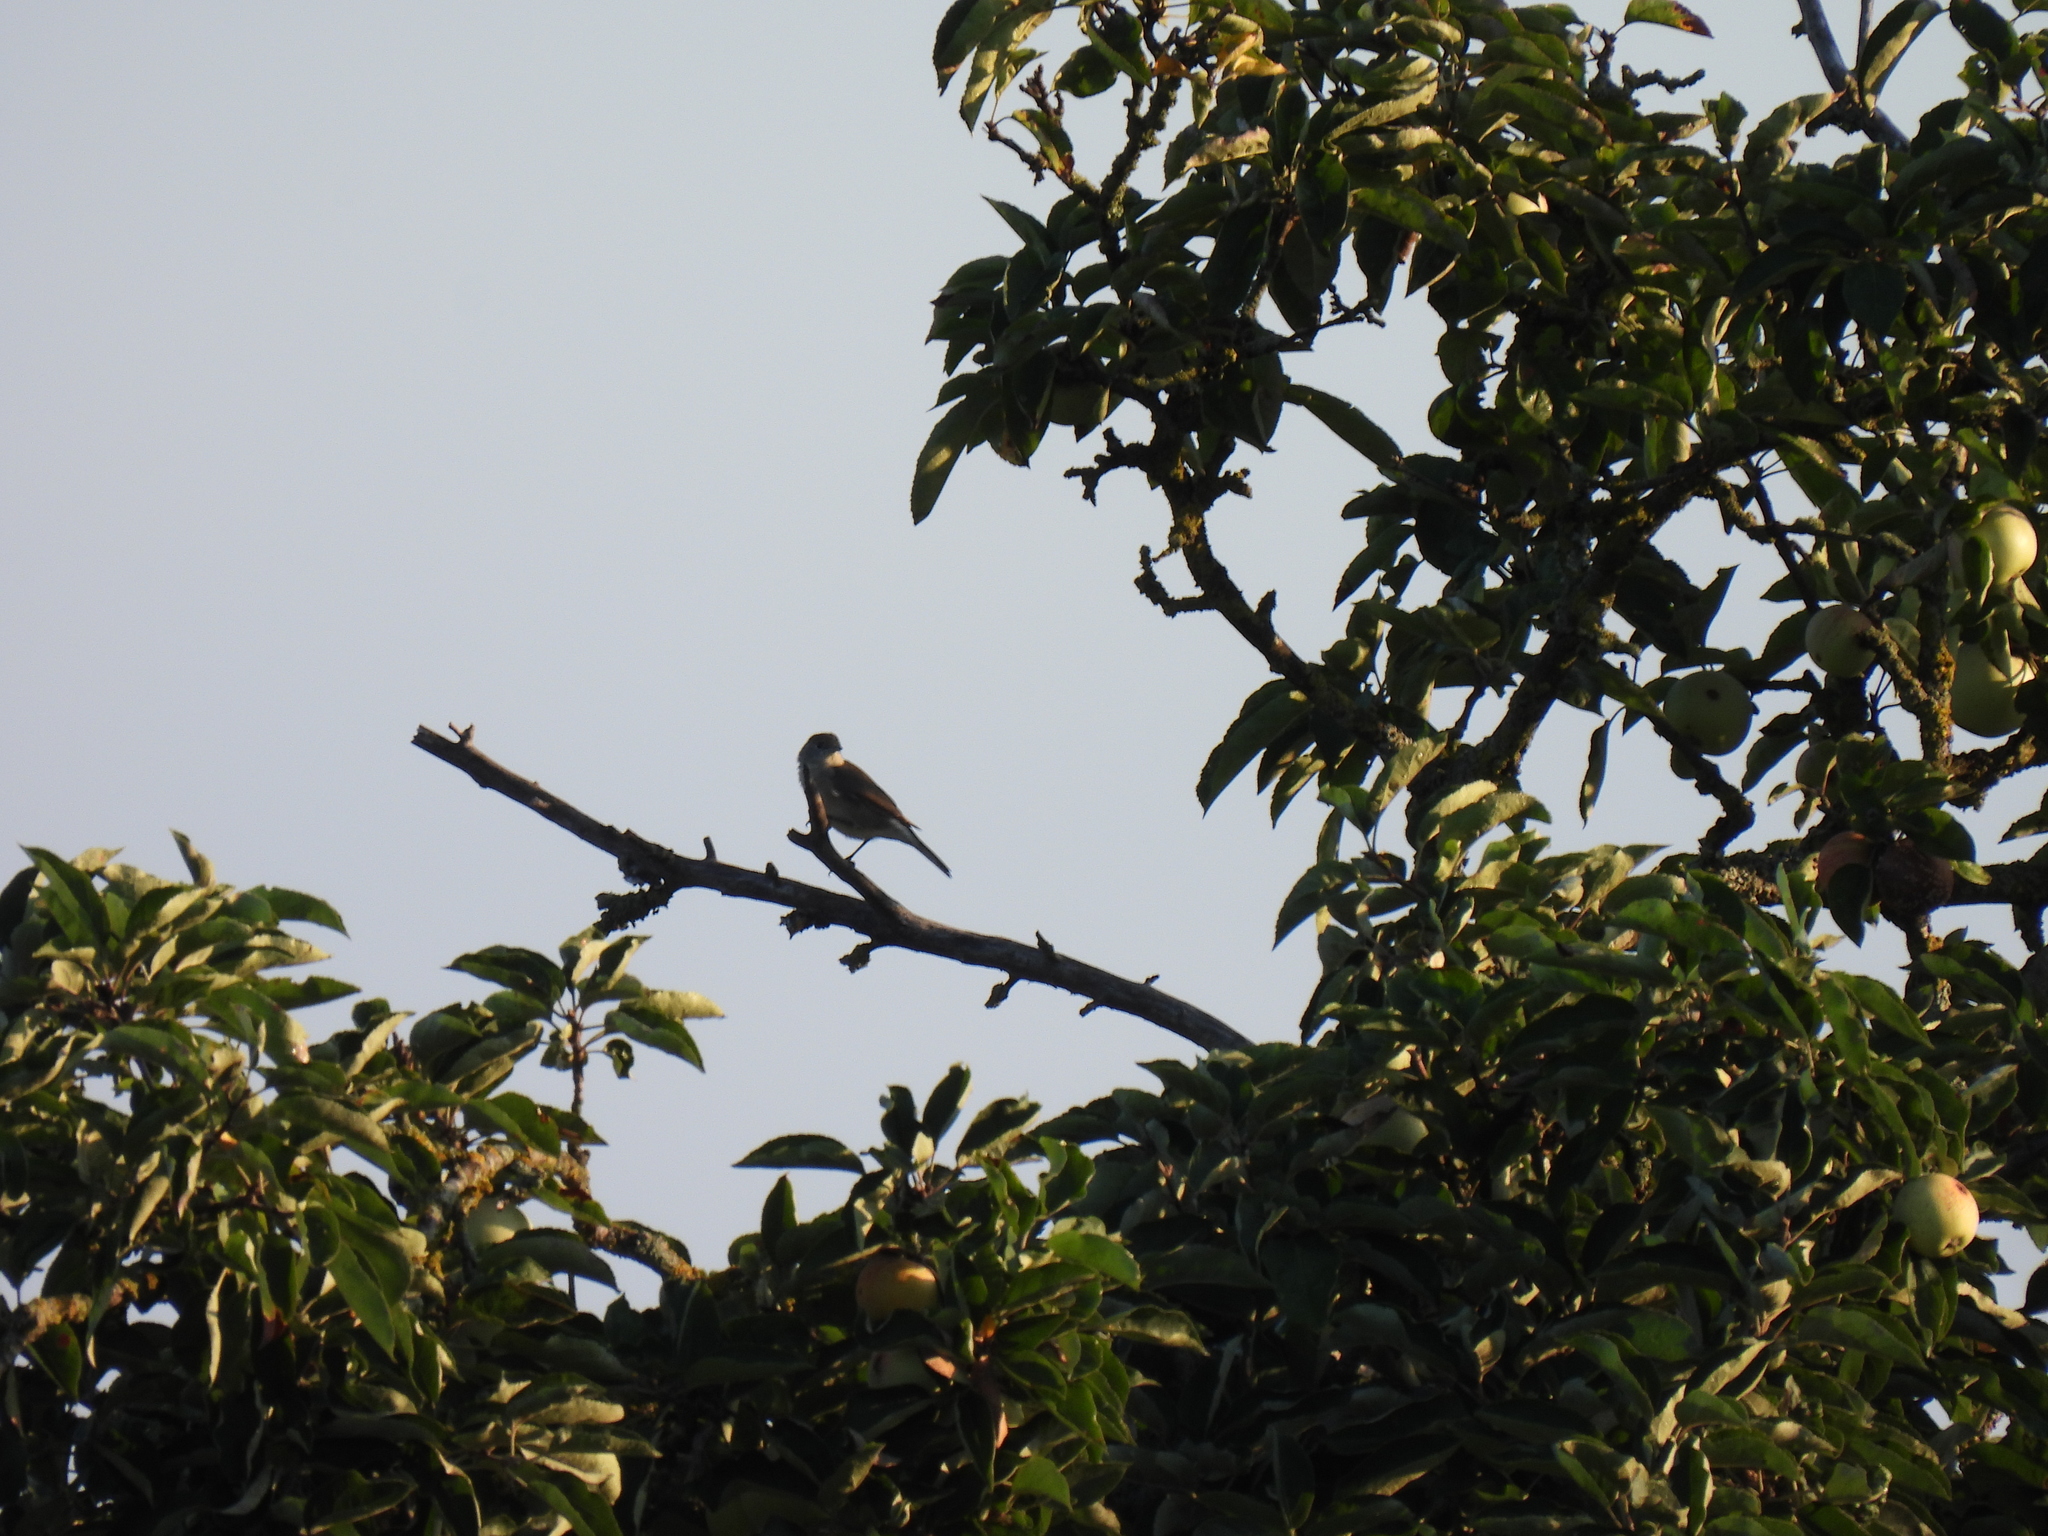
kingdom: Animalia
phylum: Chordata
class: Aves
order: Passeriformes
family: Sylviidae
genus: Sylvia
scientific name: Sylvia atricapilla
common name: Eurasian blackcap
